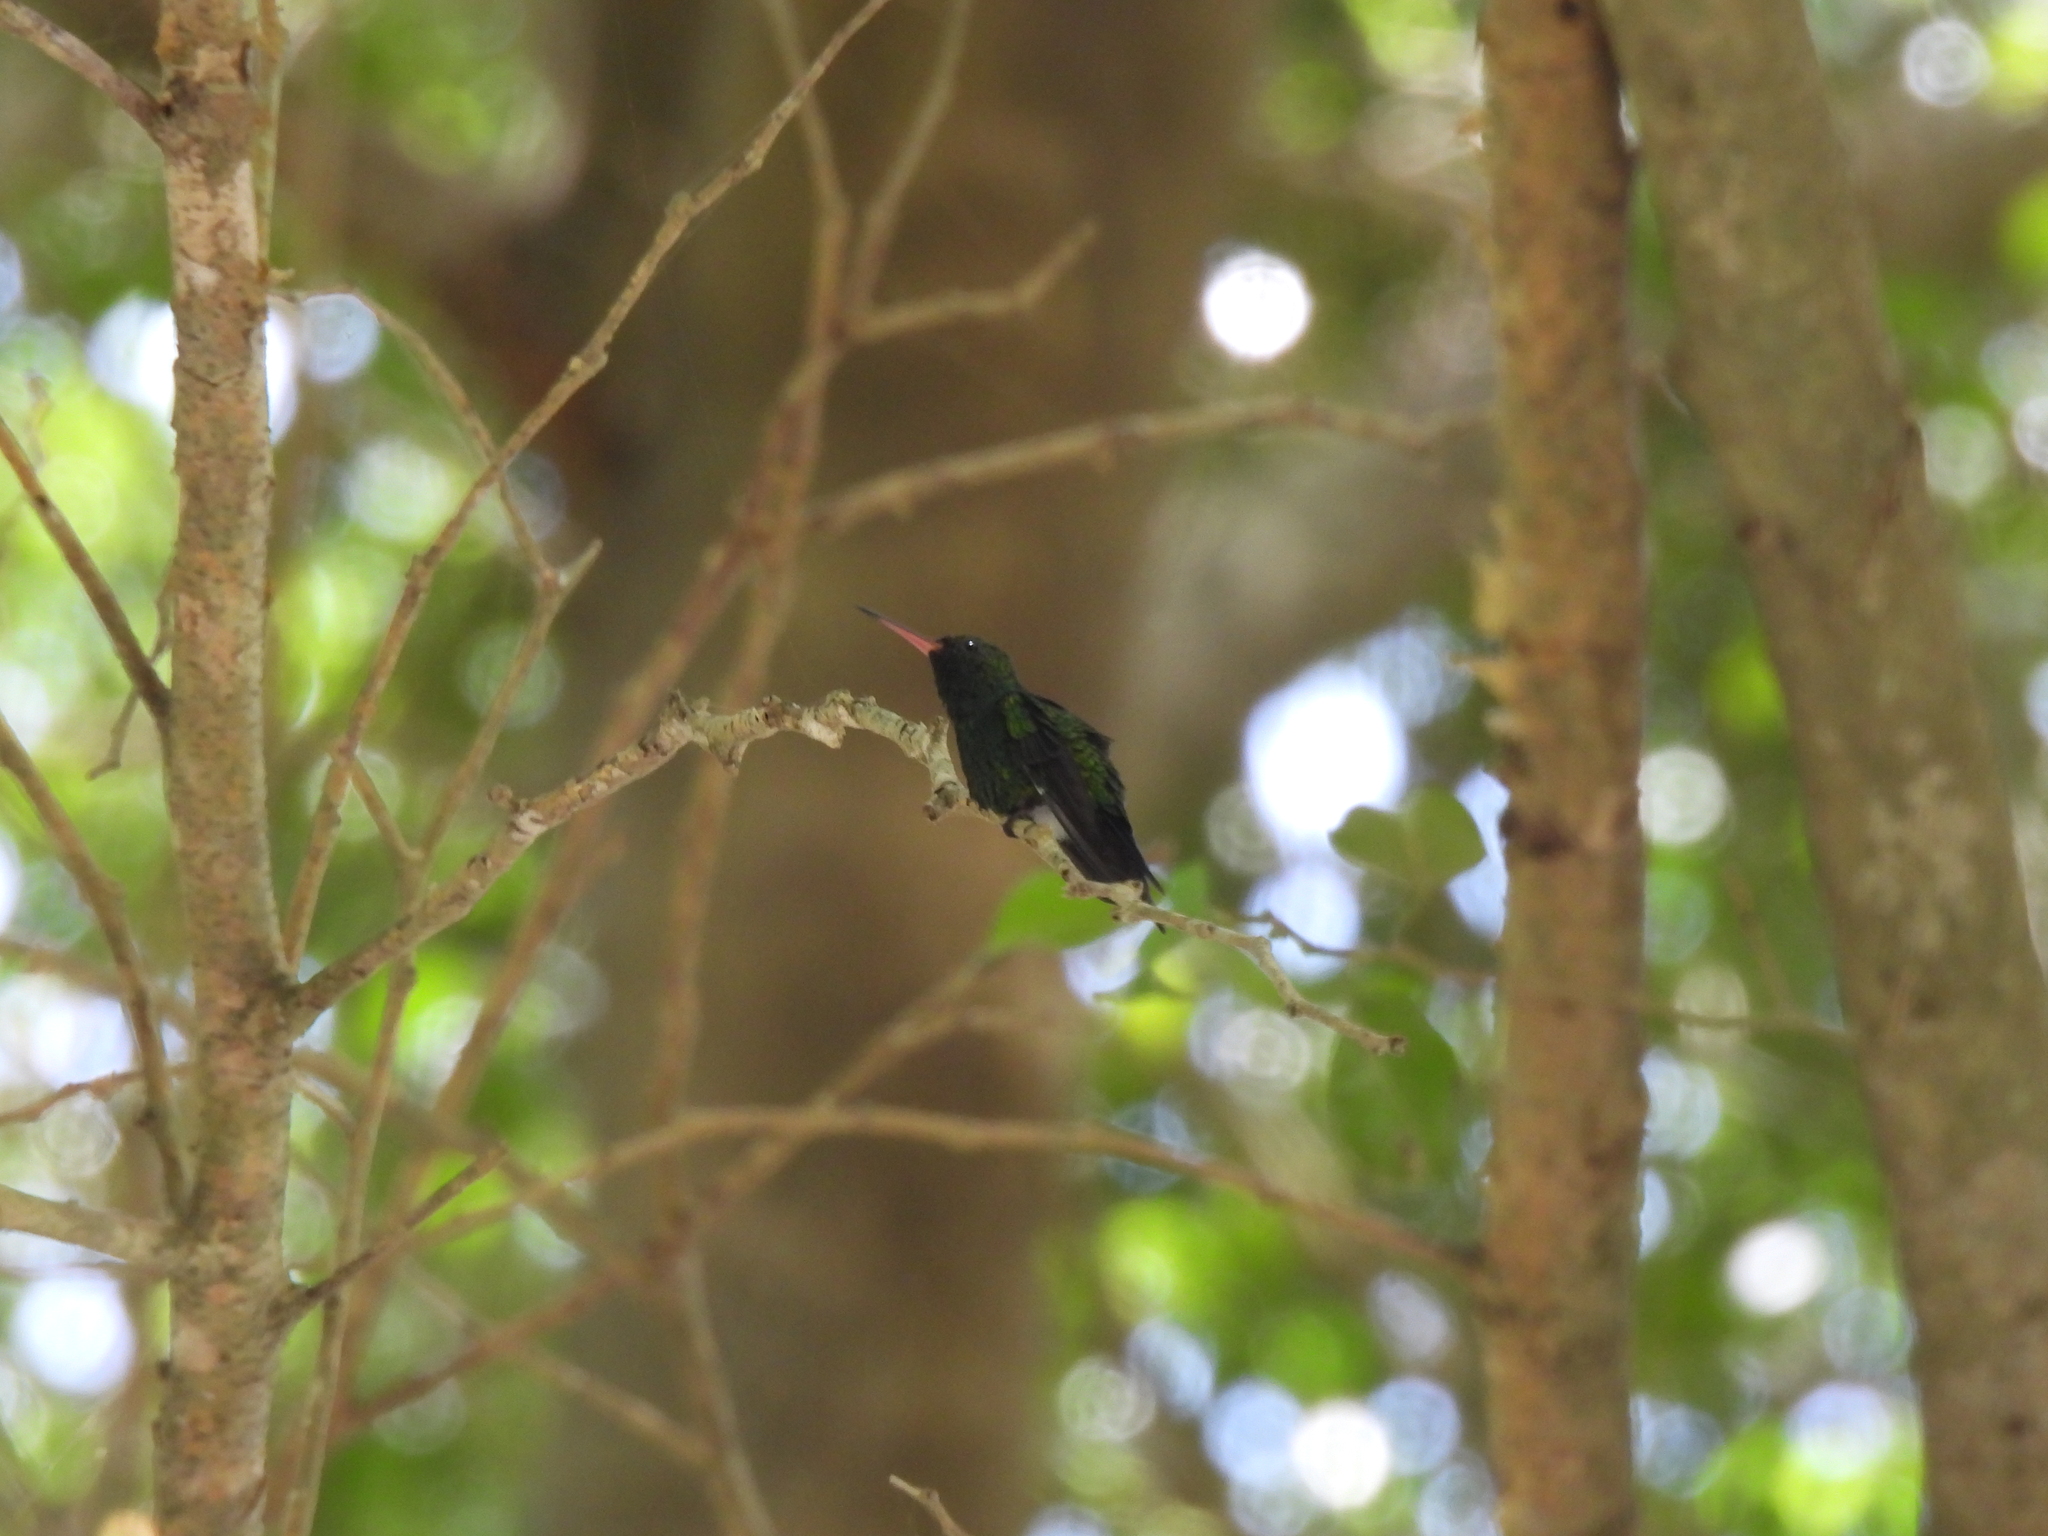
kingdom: Animalia
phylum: Chordata
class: Aves
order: Apodiformes
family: Trochilidae
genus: Cynanthus
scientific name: Cynanthus canivetii
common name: Canivet's emerald
